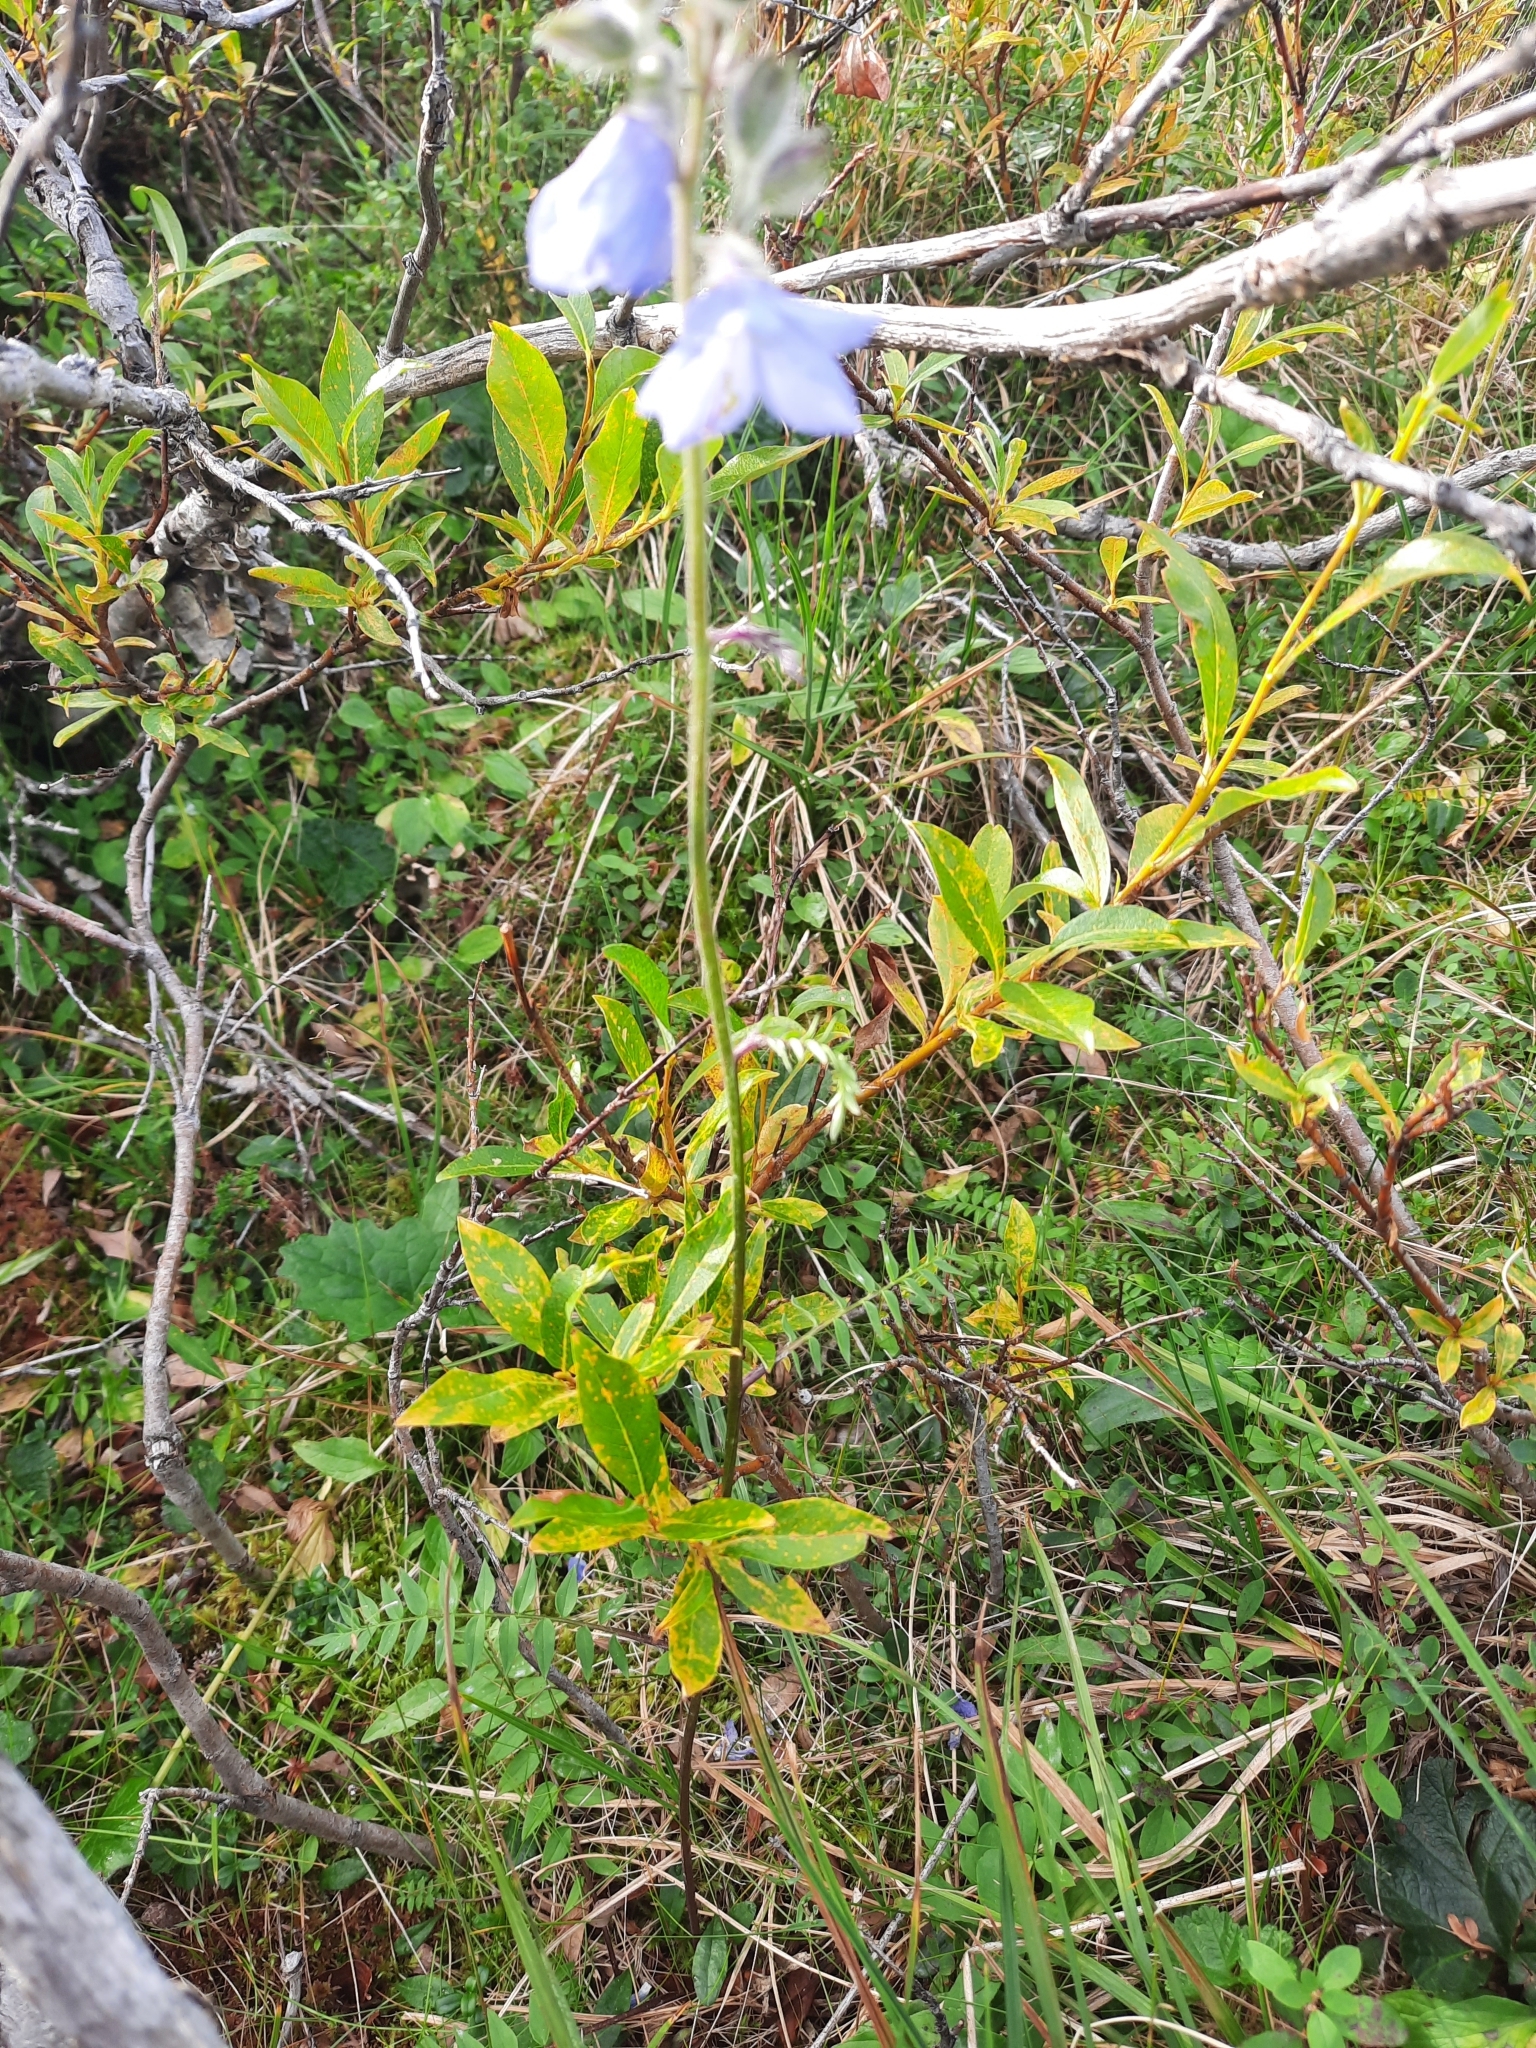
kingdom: Plantae
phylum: Tracheophyta
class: Magnoliopsida
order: Ericales
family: Polemoniaceae
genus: Polemonium
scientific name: Polemonium acutiflorum
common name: Tall jacob's-ladder
